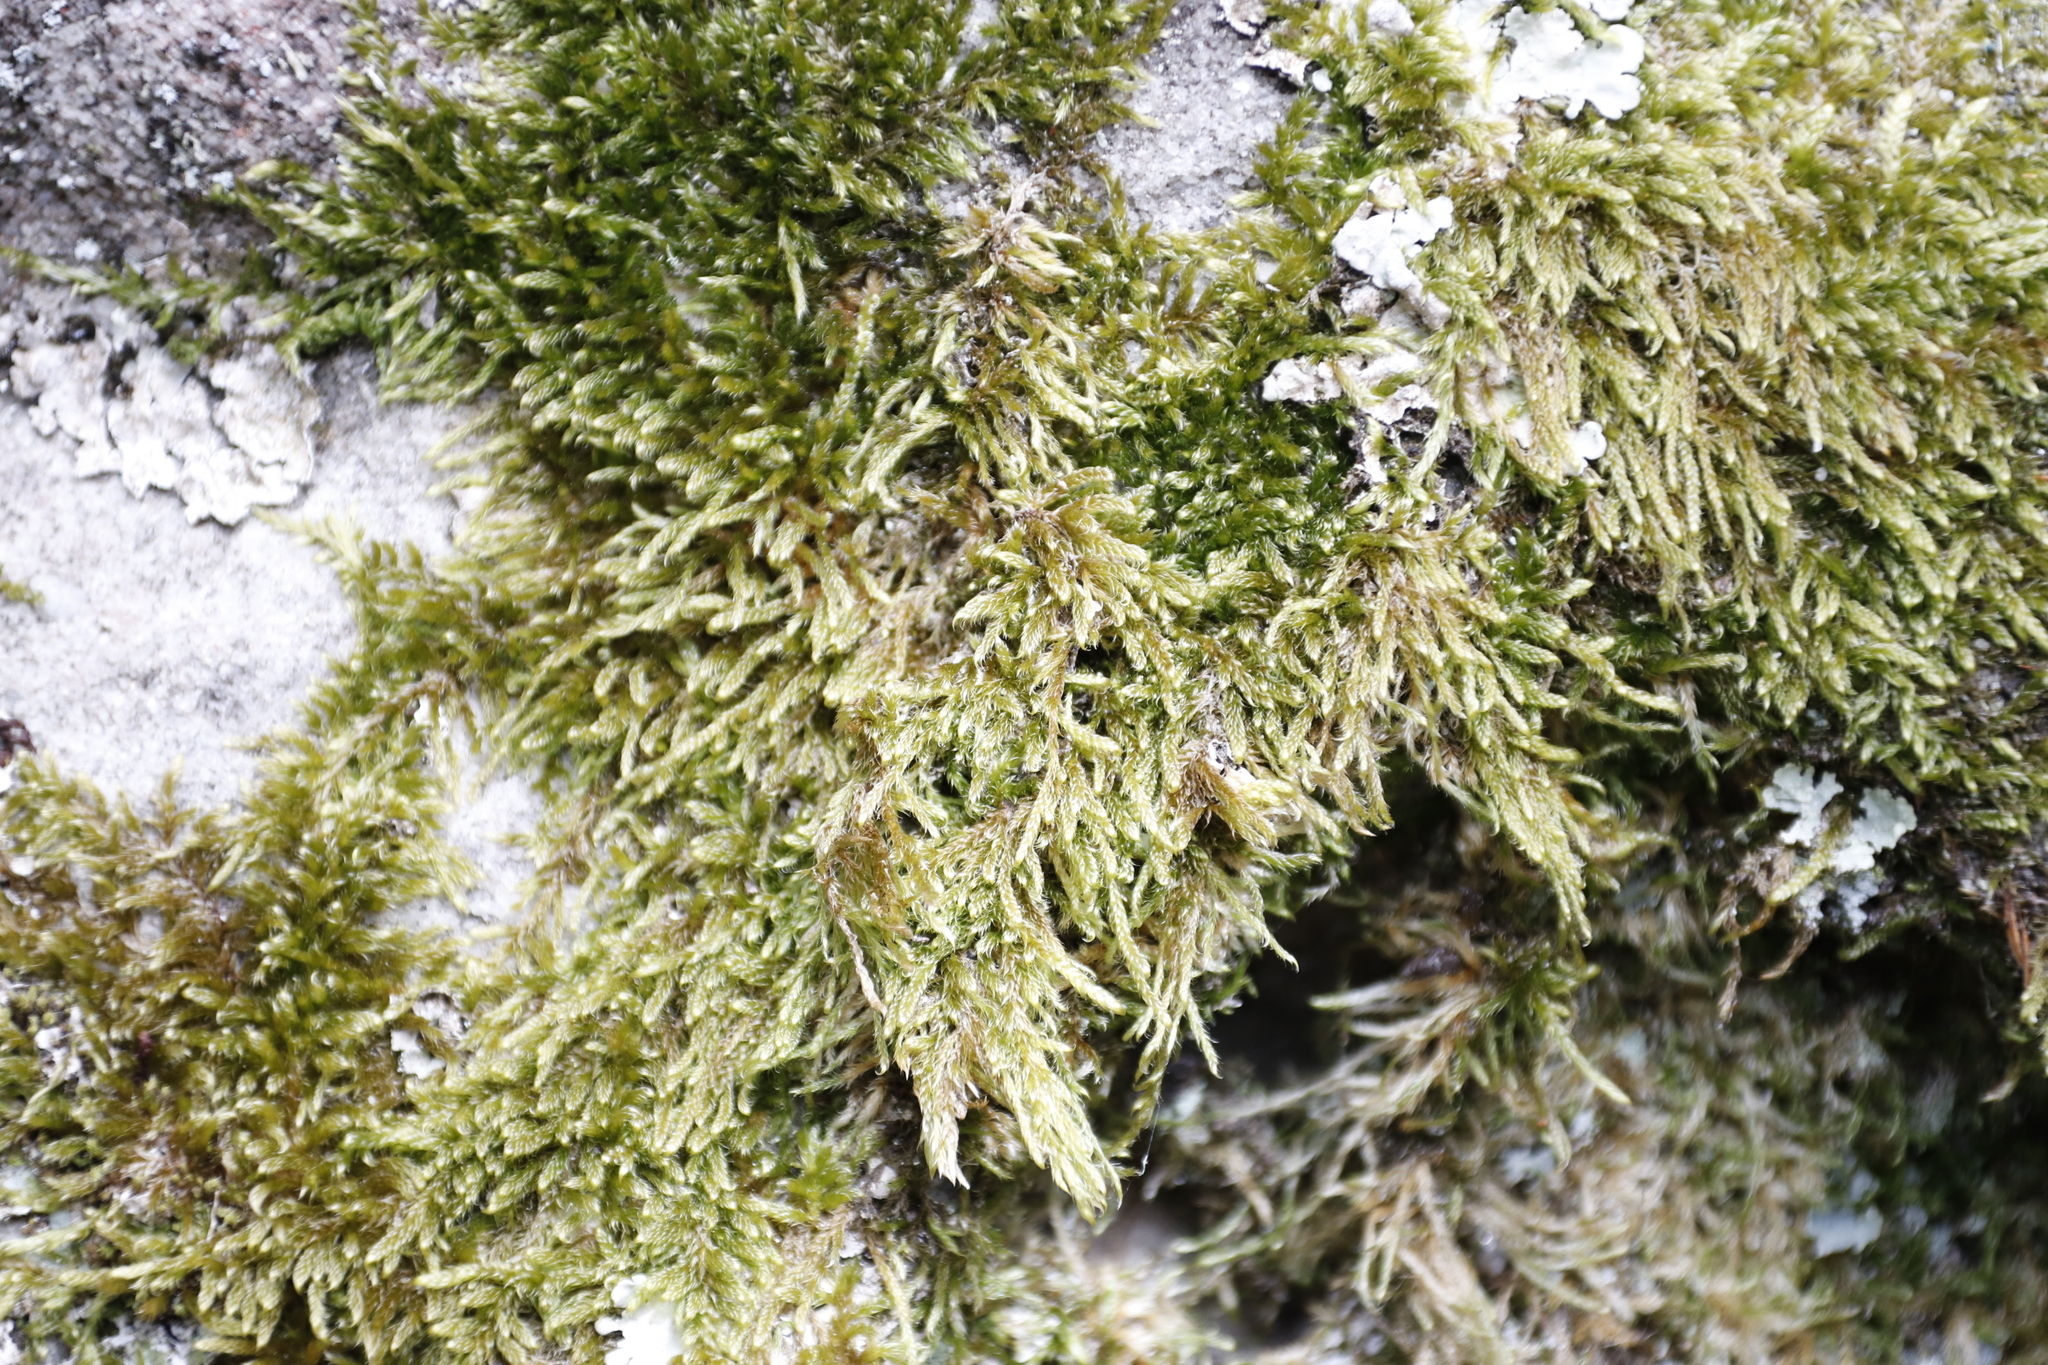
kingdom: Plantae
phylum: Bryophyta
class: Bryopsida
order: Hypnales
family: Hypnaceae
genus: Hypnum
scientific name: Hypnum cupressiforme
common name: Cypress-leaved plait-moss
